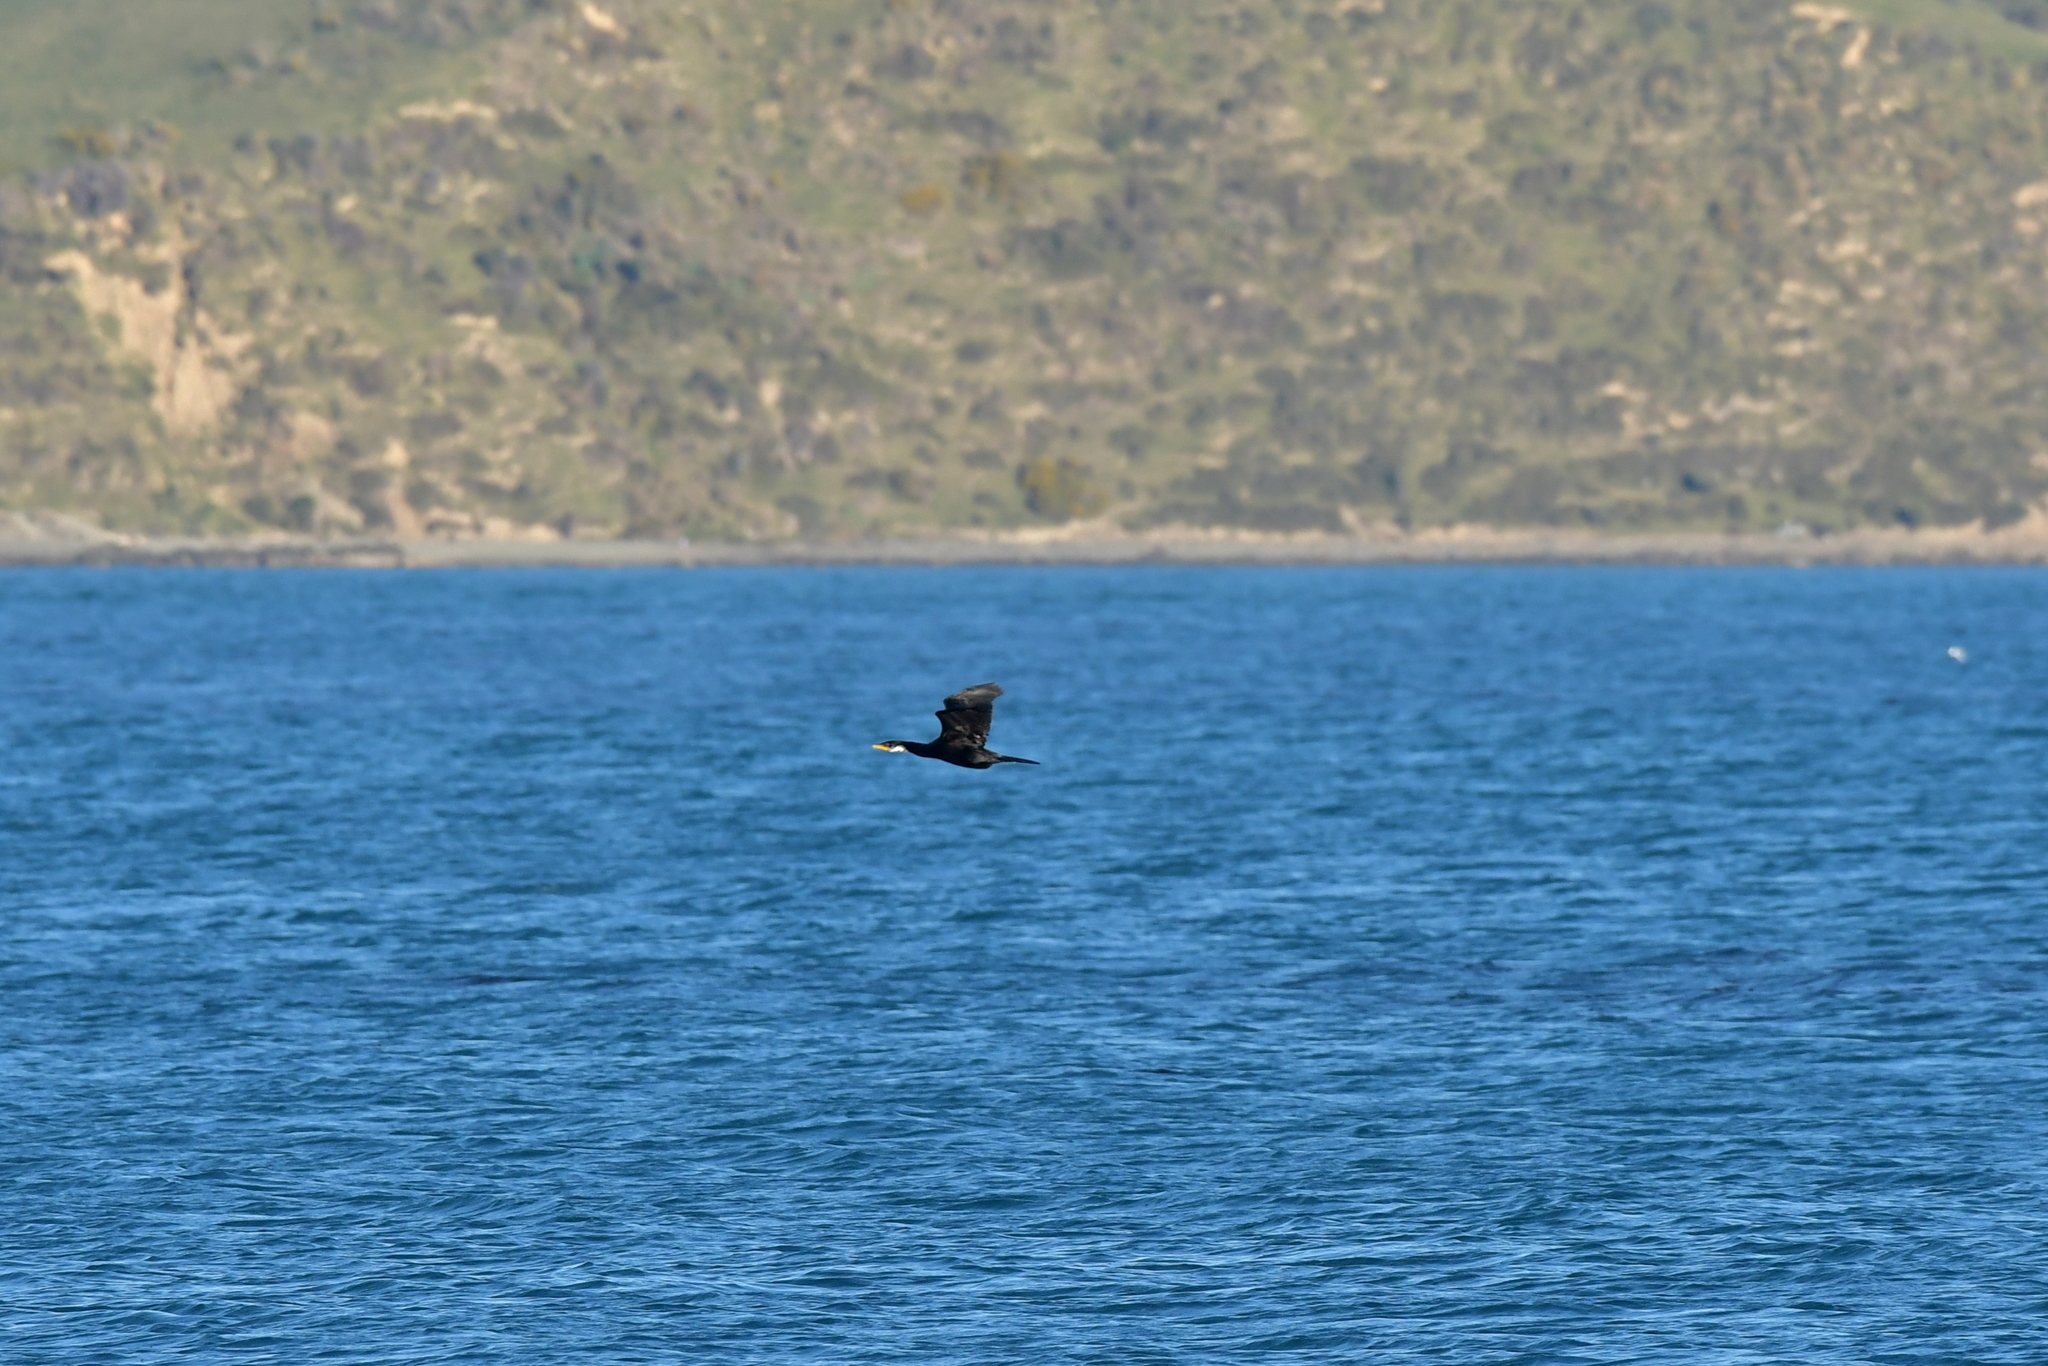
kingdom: Animalia
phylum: Chordata
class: Aves
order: Suliformes
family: Phalacrocoracidae
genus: Microcarbo
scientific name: Microcarbo melanoleucos
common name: Little pied cormorant
